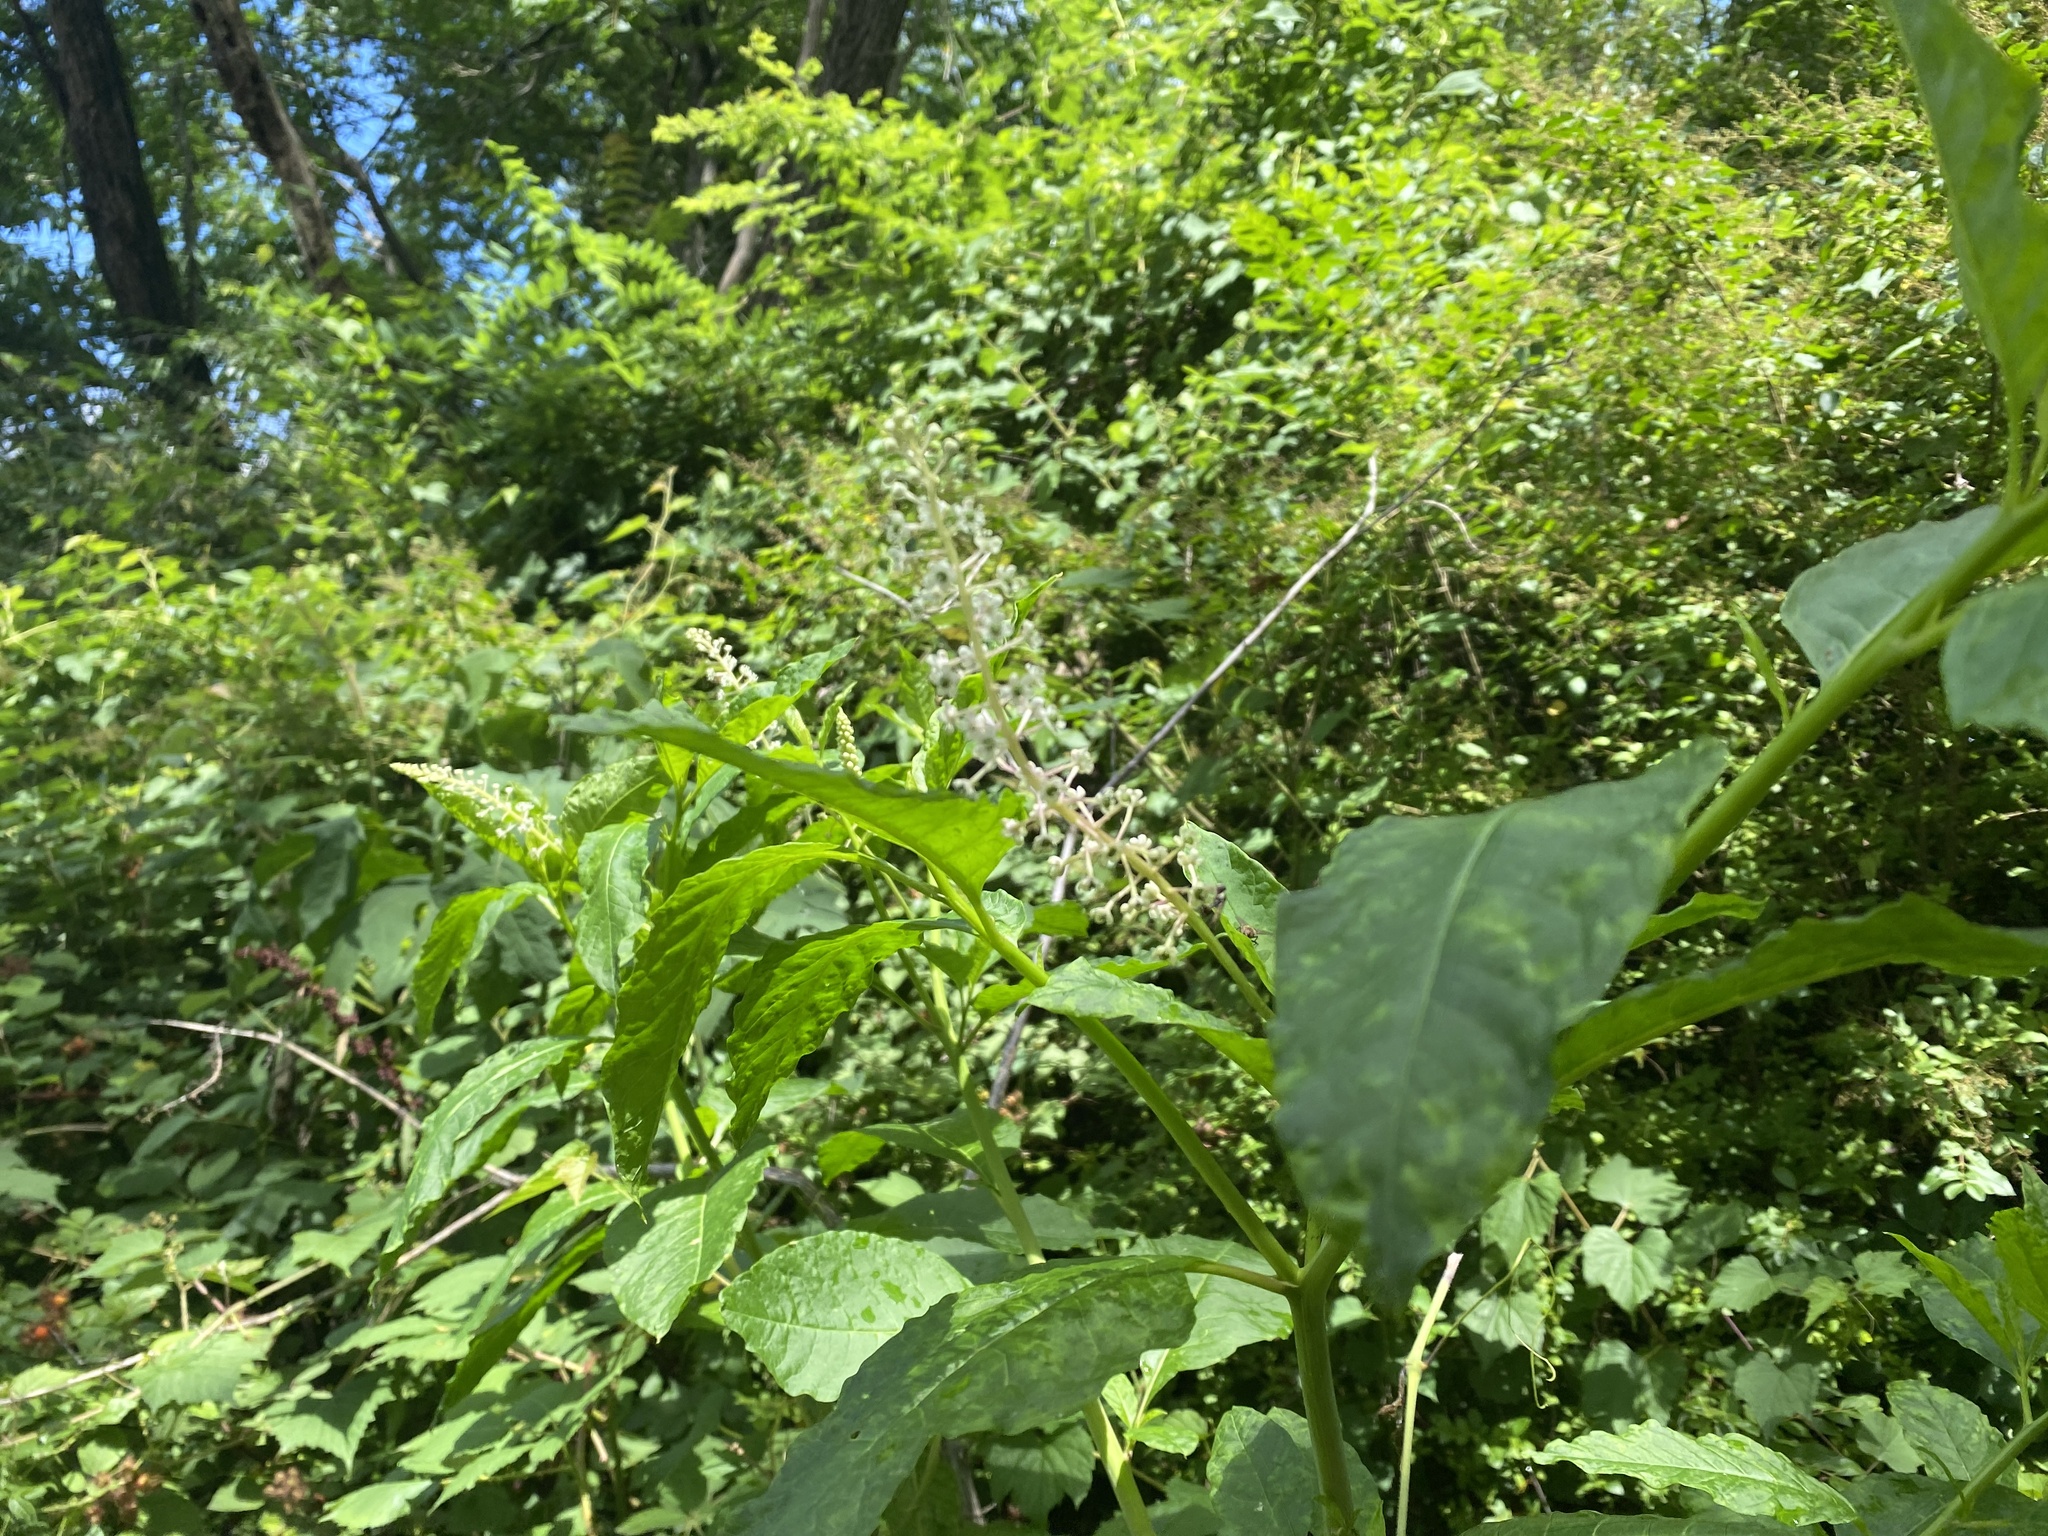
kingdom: Plantae
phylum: Tracheophyta
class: Magnoliopsida
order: Caryophyllales
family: Phytolaccaceae
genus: Phytolacca
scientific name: Phytolacca americana
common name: American pokeweed
